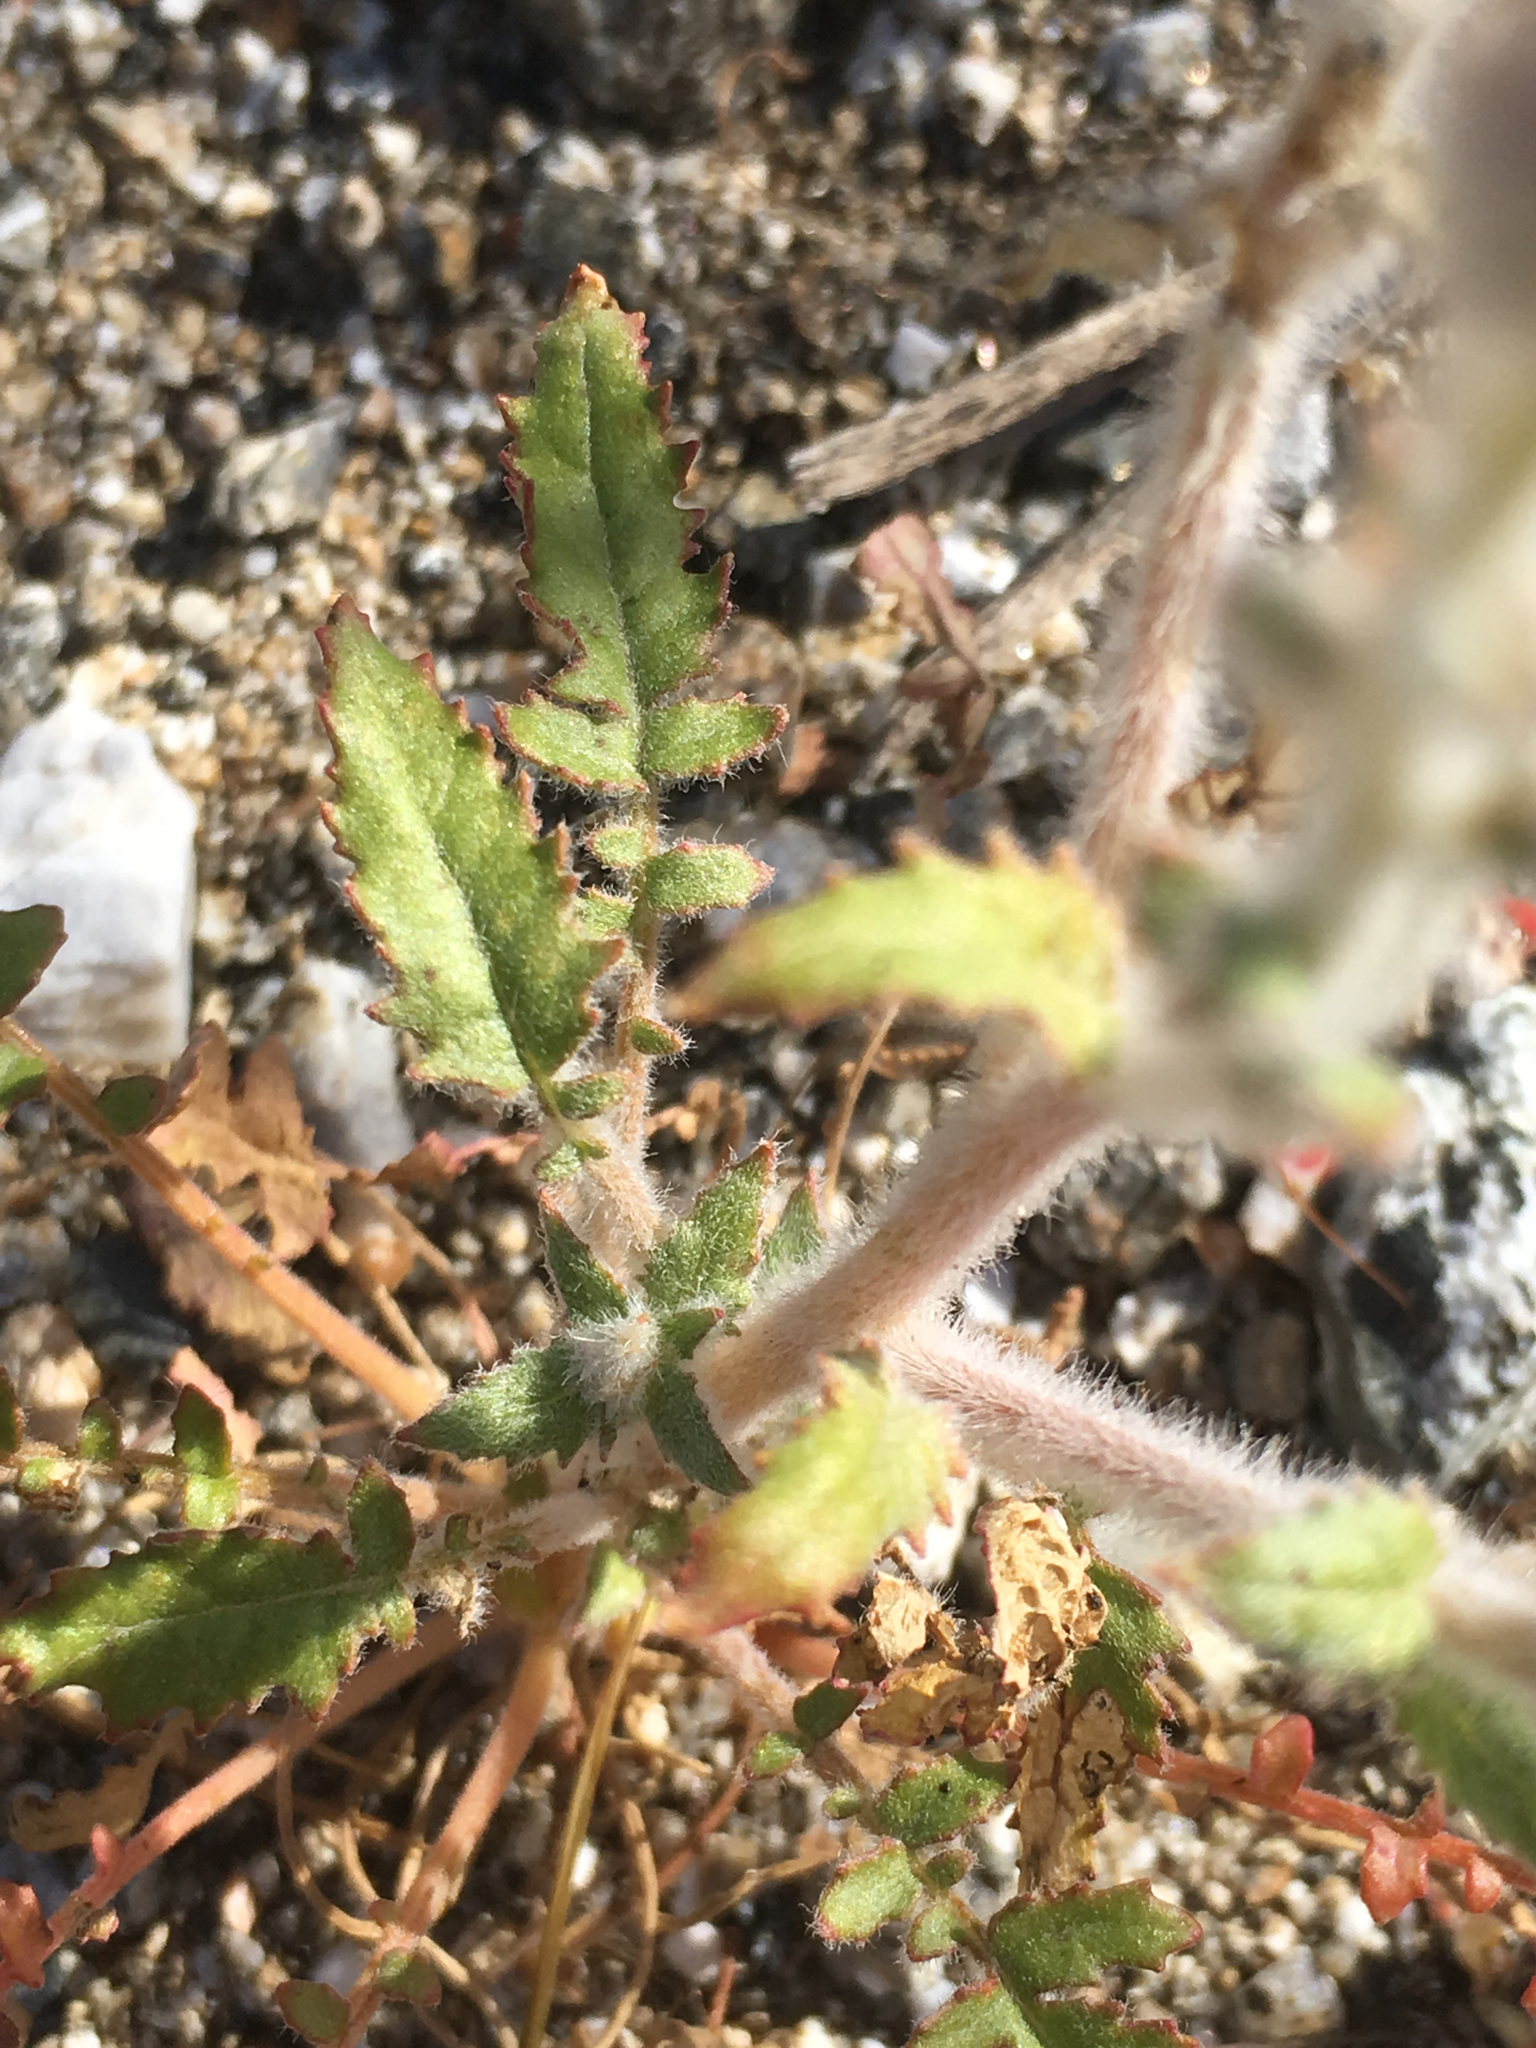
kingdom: Plantae
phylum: Tracheophyta
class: Magnoliopsida
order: Myrtales
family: Onagraceae
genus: Chylismia
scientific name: Chylismia claviformis
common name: Browneyes
